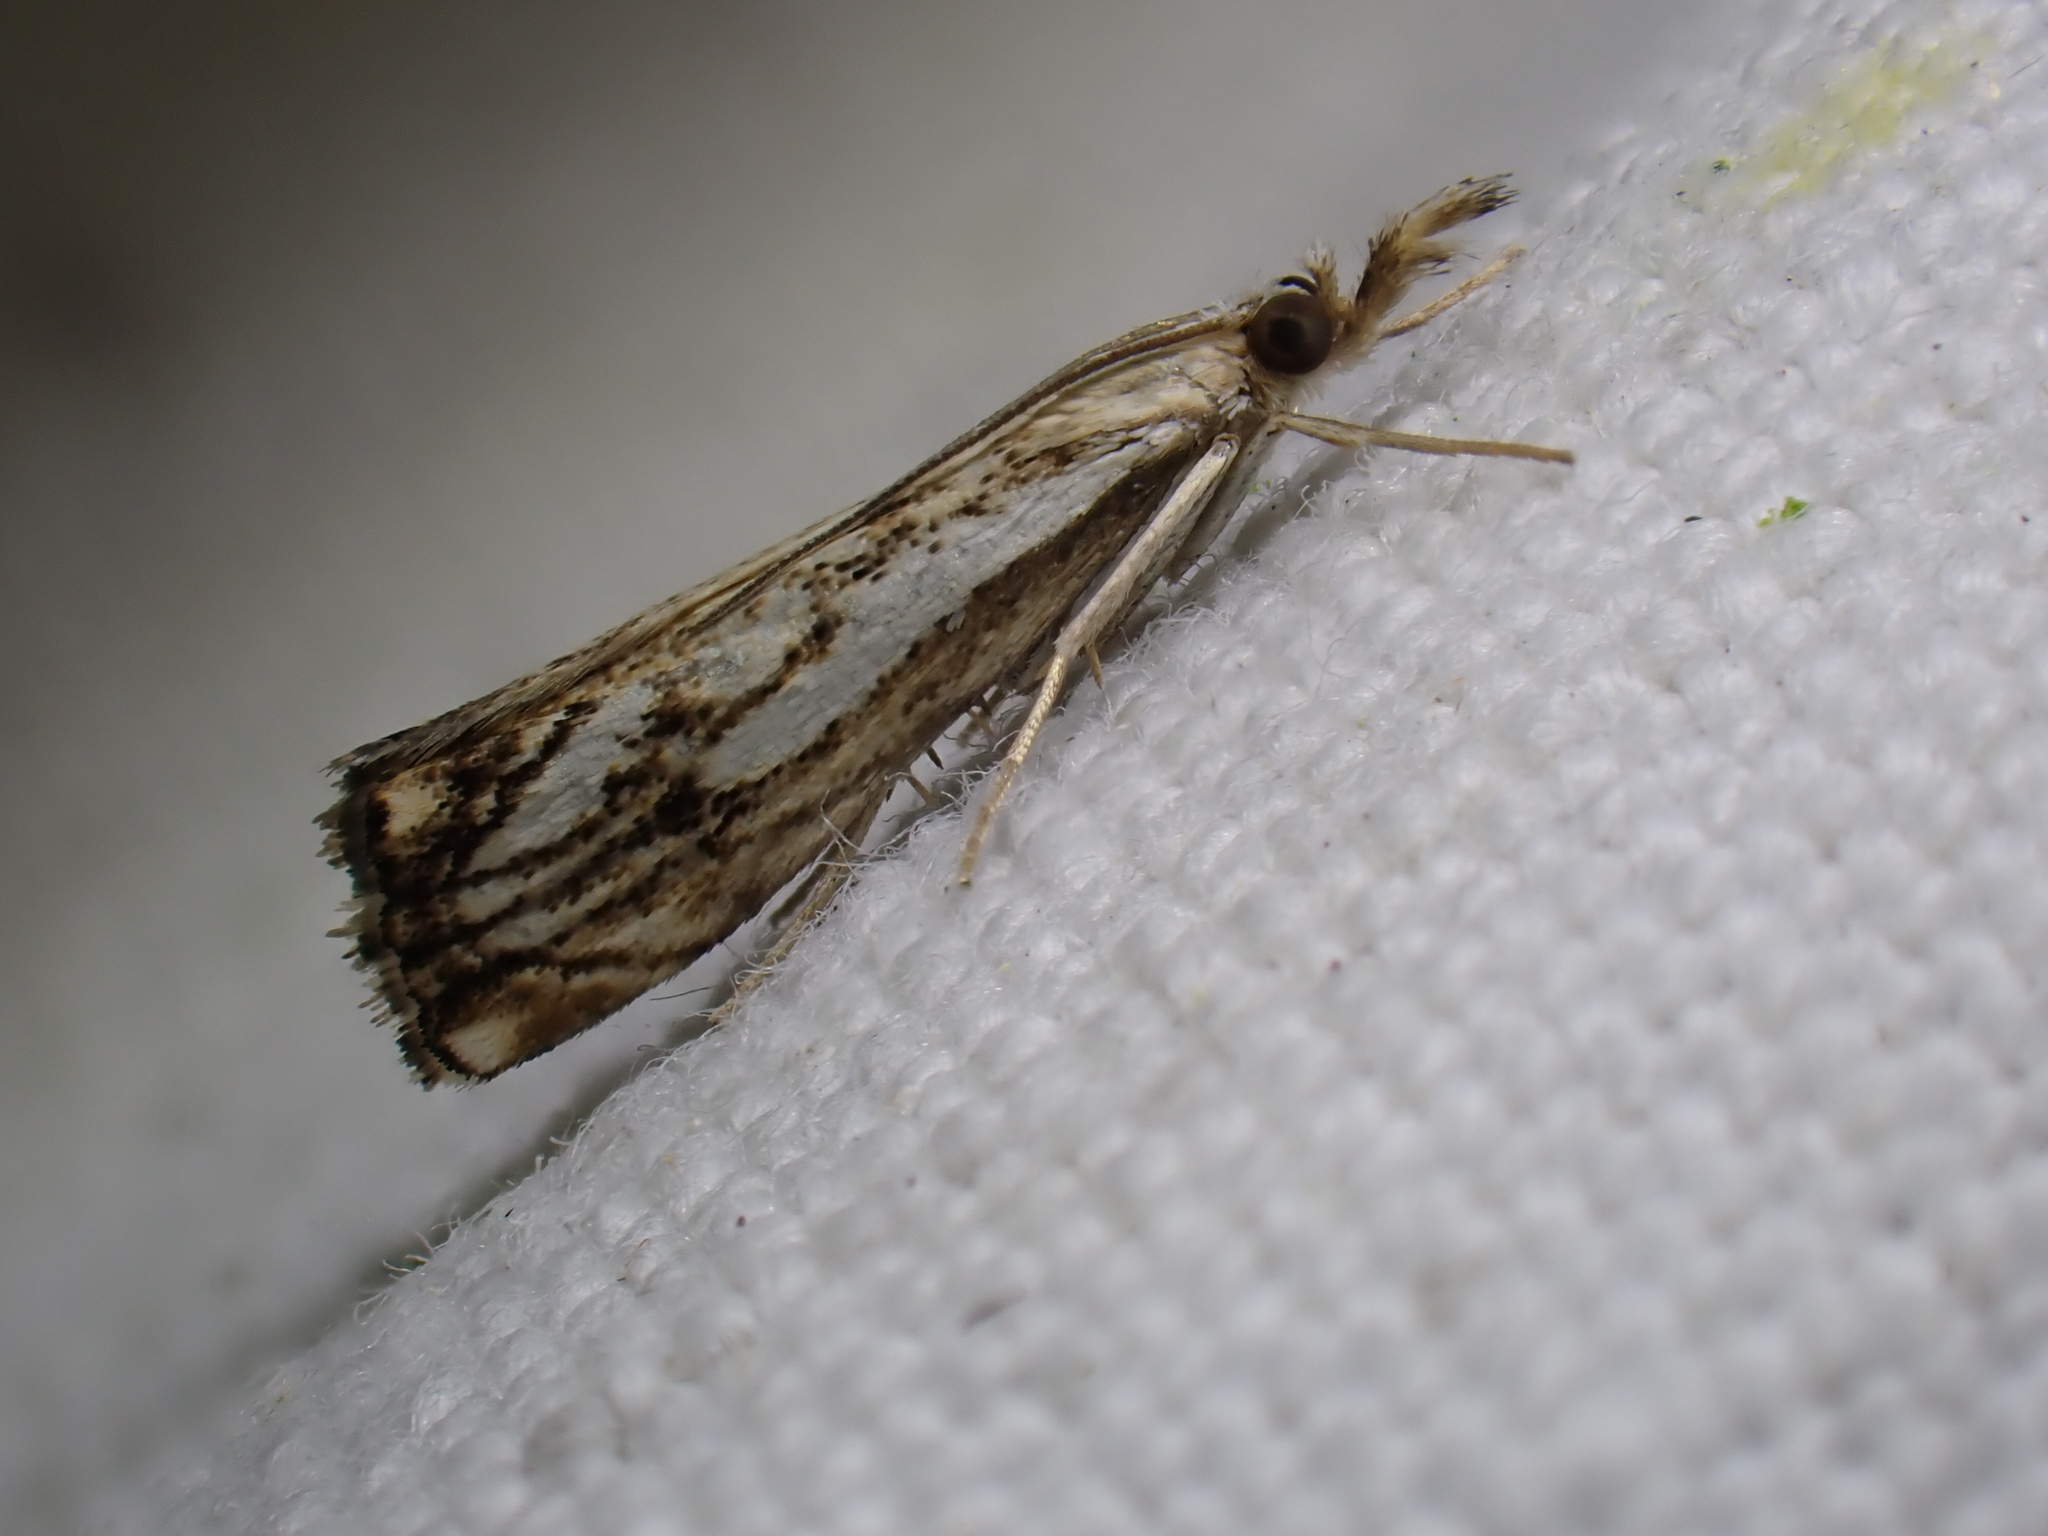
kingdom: Animalia
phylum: Arthropoda
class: Insecta
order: Lepidoptera
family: Crambidae
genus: Catoptria
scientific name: Catoptria falsella
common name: Chequered grass-veneer
